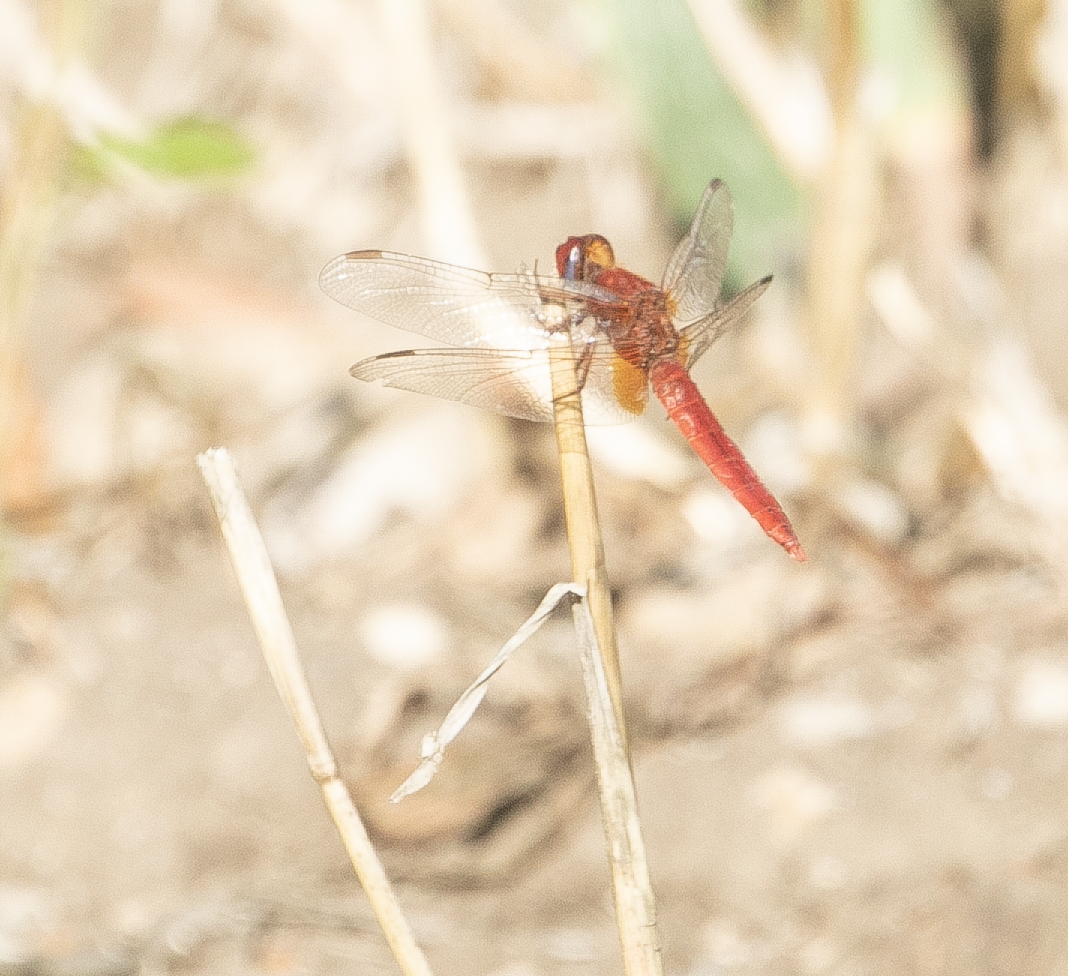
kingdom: Animalia
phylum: Arthropoda
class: Insecta
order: Odonata
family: Libellulidae
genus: Crocothemis
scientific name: Crocothemis erythraea
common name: Scarlet dragonfly
